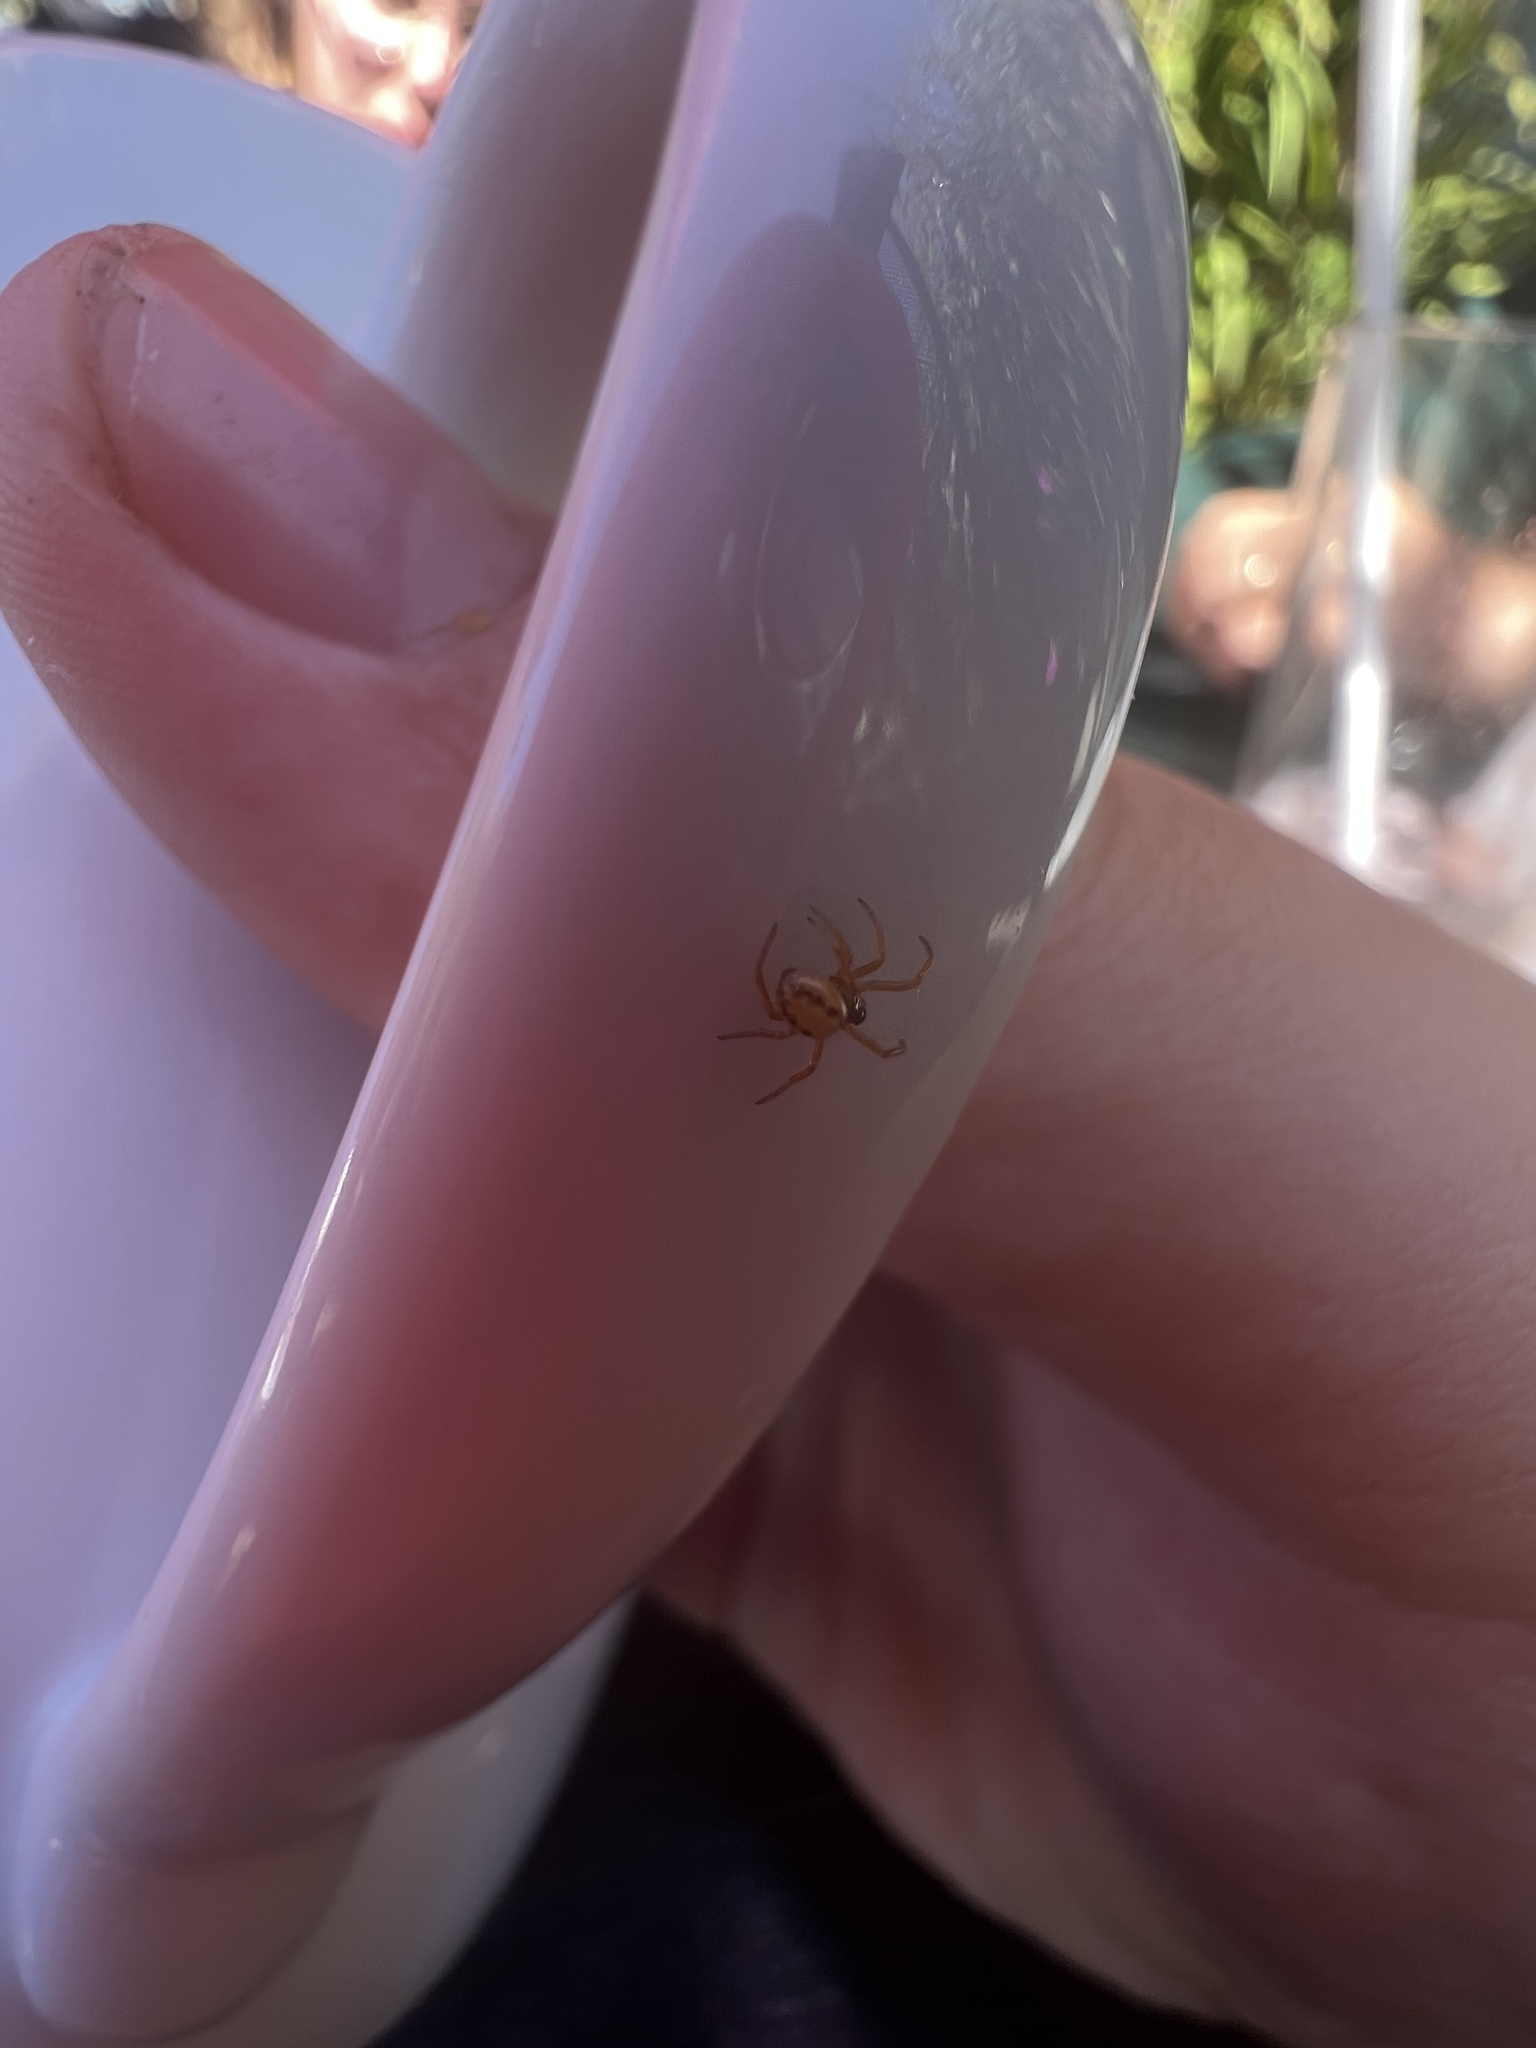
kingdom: Animalia
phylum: Arthropoda
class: Arachnida
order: Araneae
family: Theridiidae
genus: Steatoda
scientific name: Steatoda nobilis
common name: Cobweb weaver
